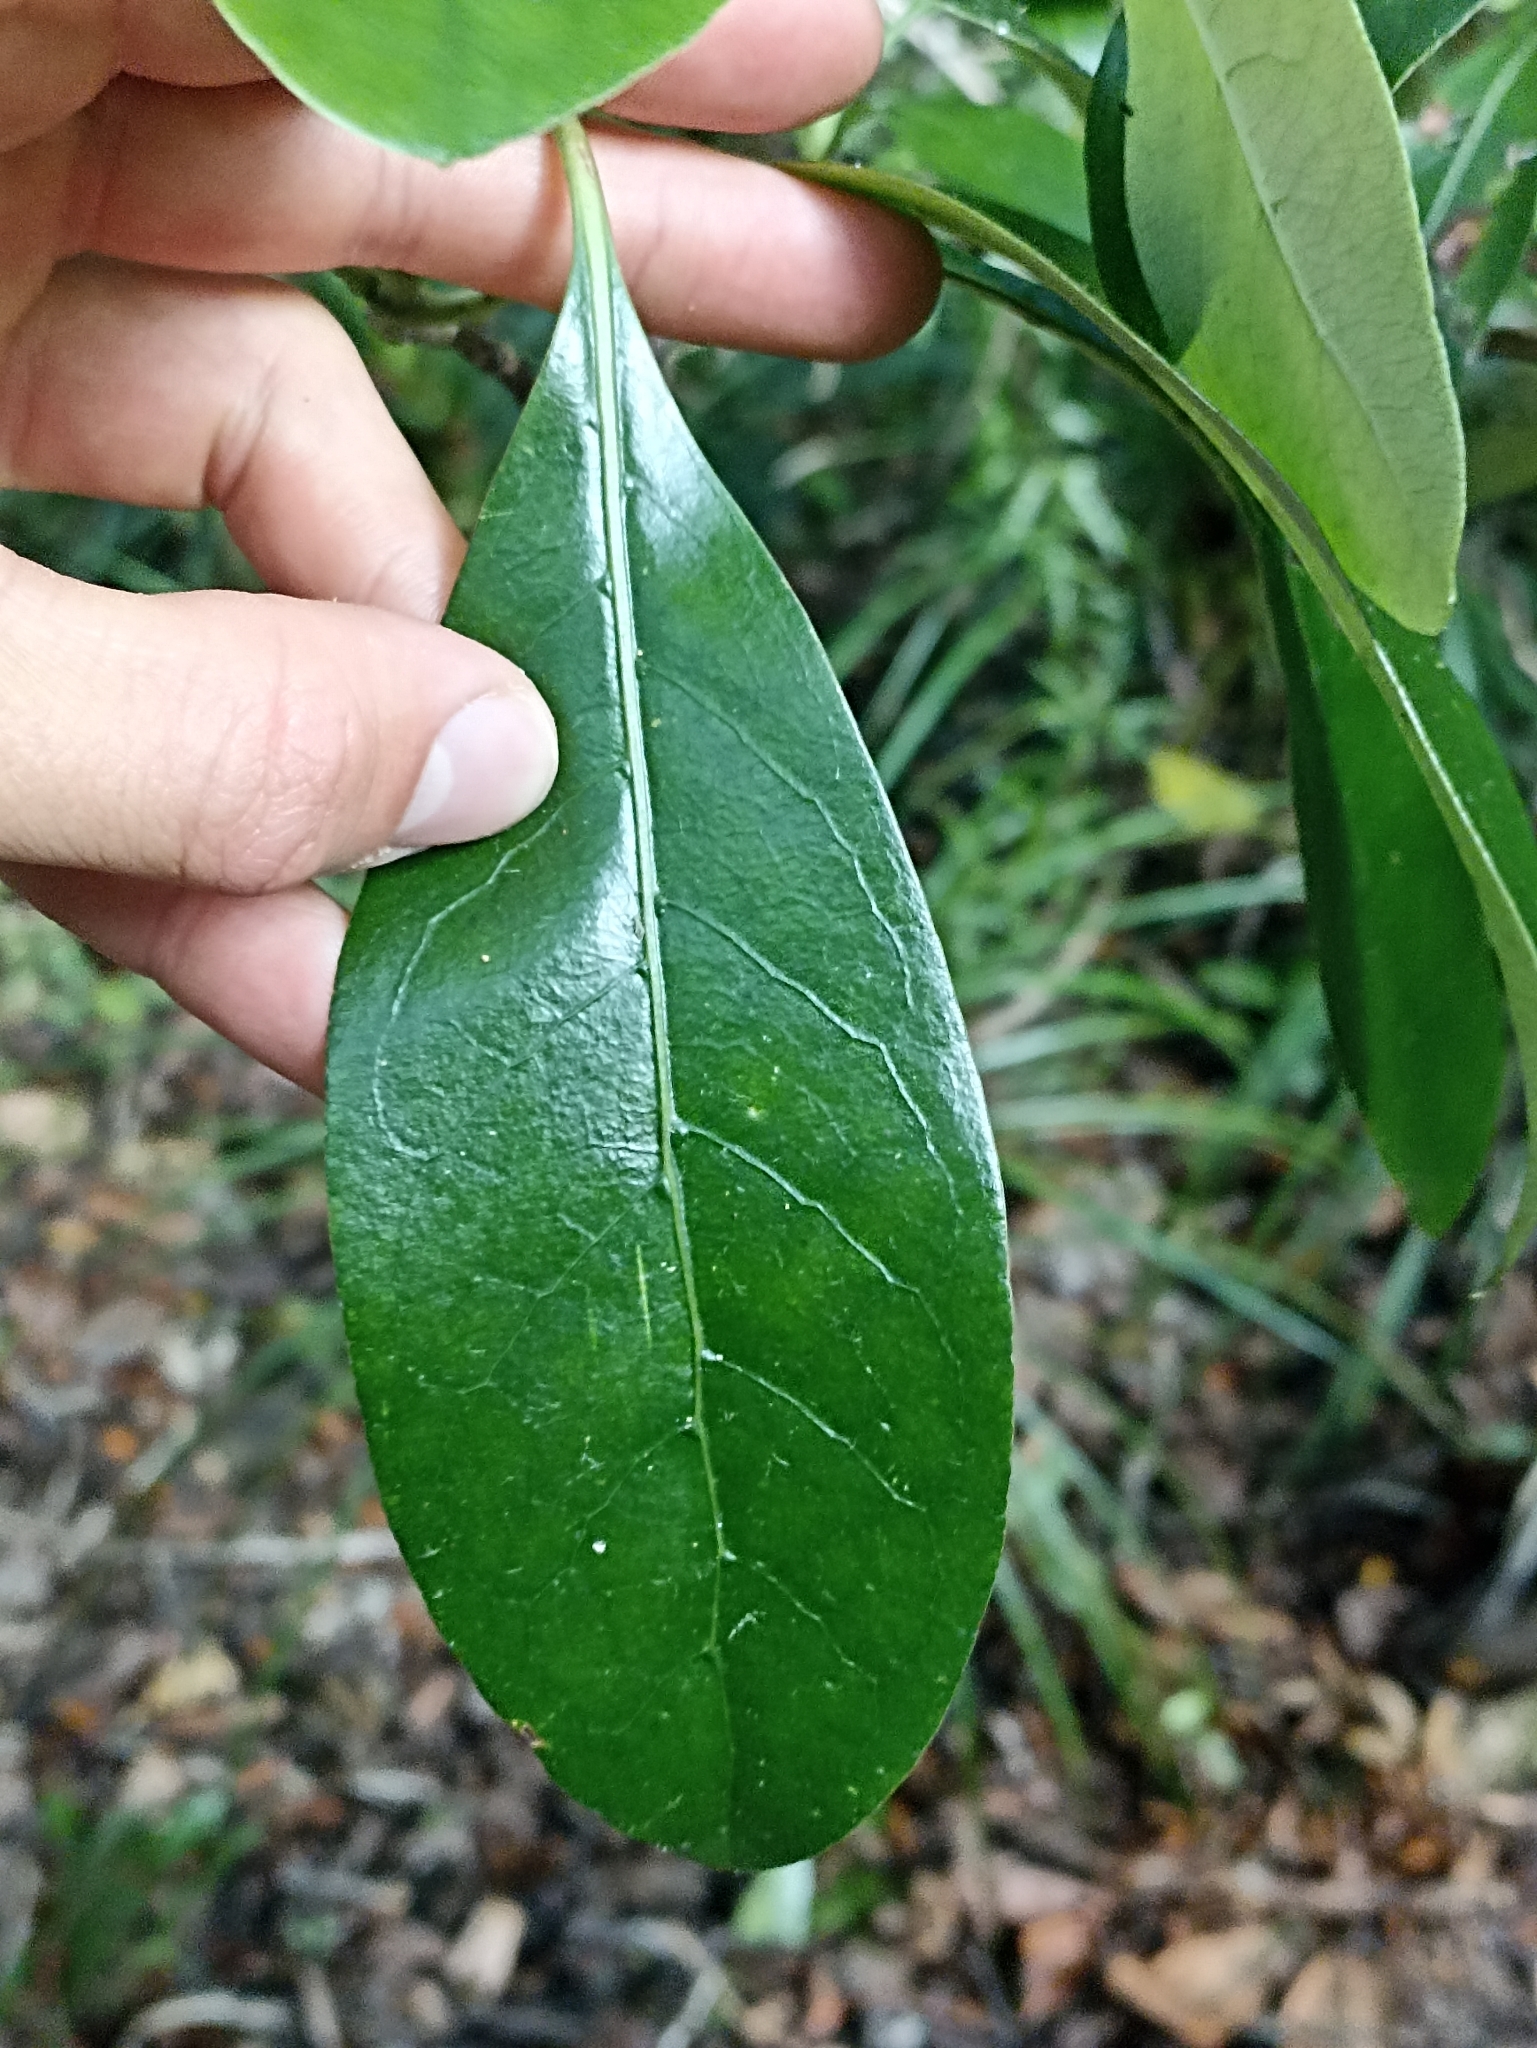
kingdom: Plantae
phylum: Tracheophyta
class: Magnoliopsida
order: Gentianales
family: Rubiaceae
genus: Coprosma
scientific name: Coprosma lucida
